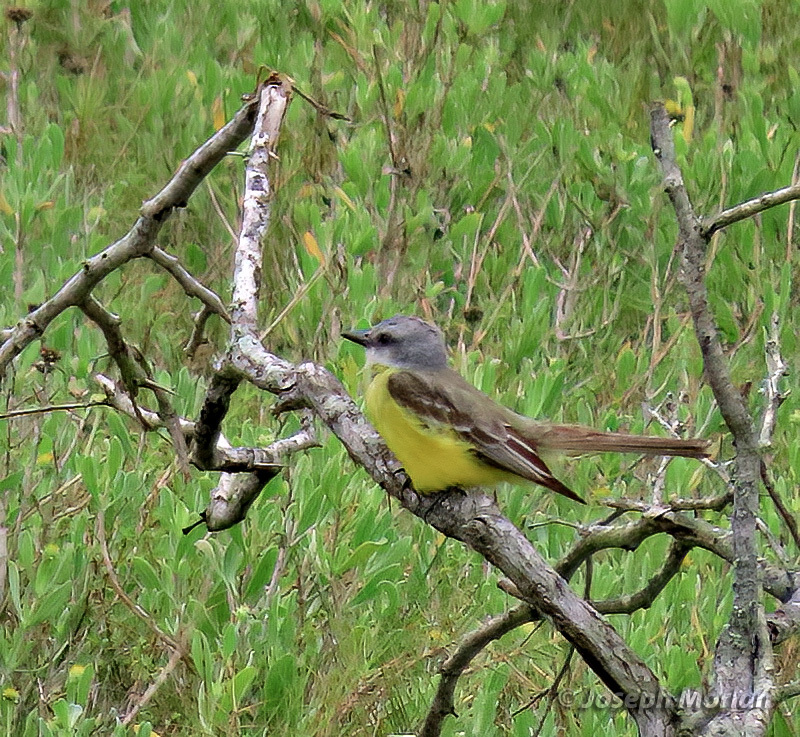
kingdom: Animalia
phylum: Chordata
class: Aves
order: Passeriformes
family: Tyrannidae
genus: Tyrannus
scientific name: Tyrannus melancholicus
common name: Tropical kingbird
